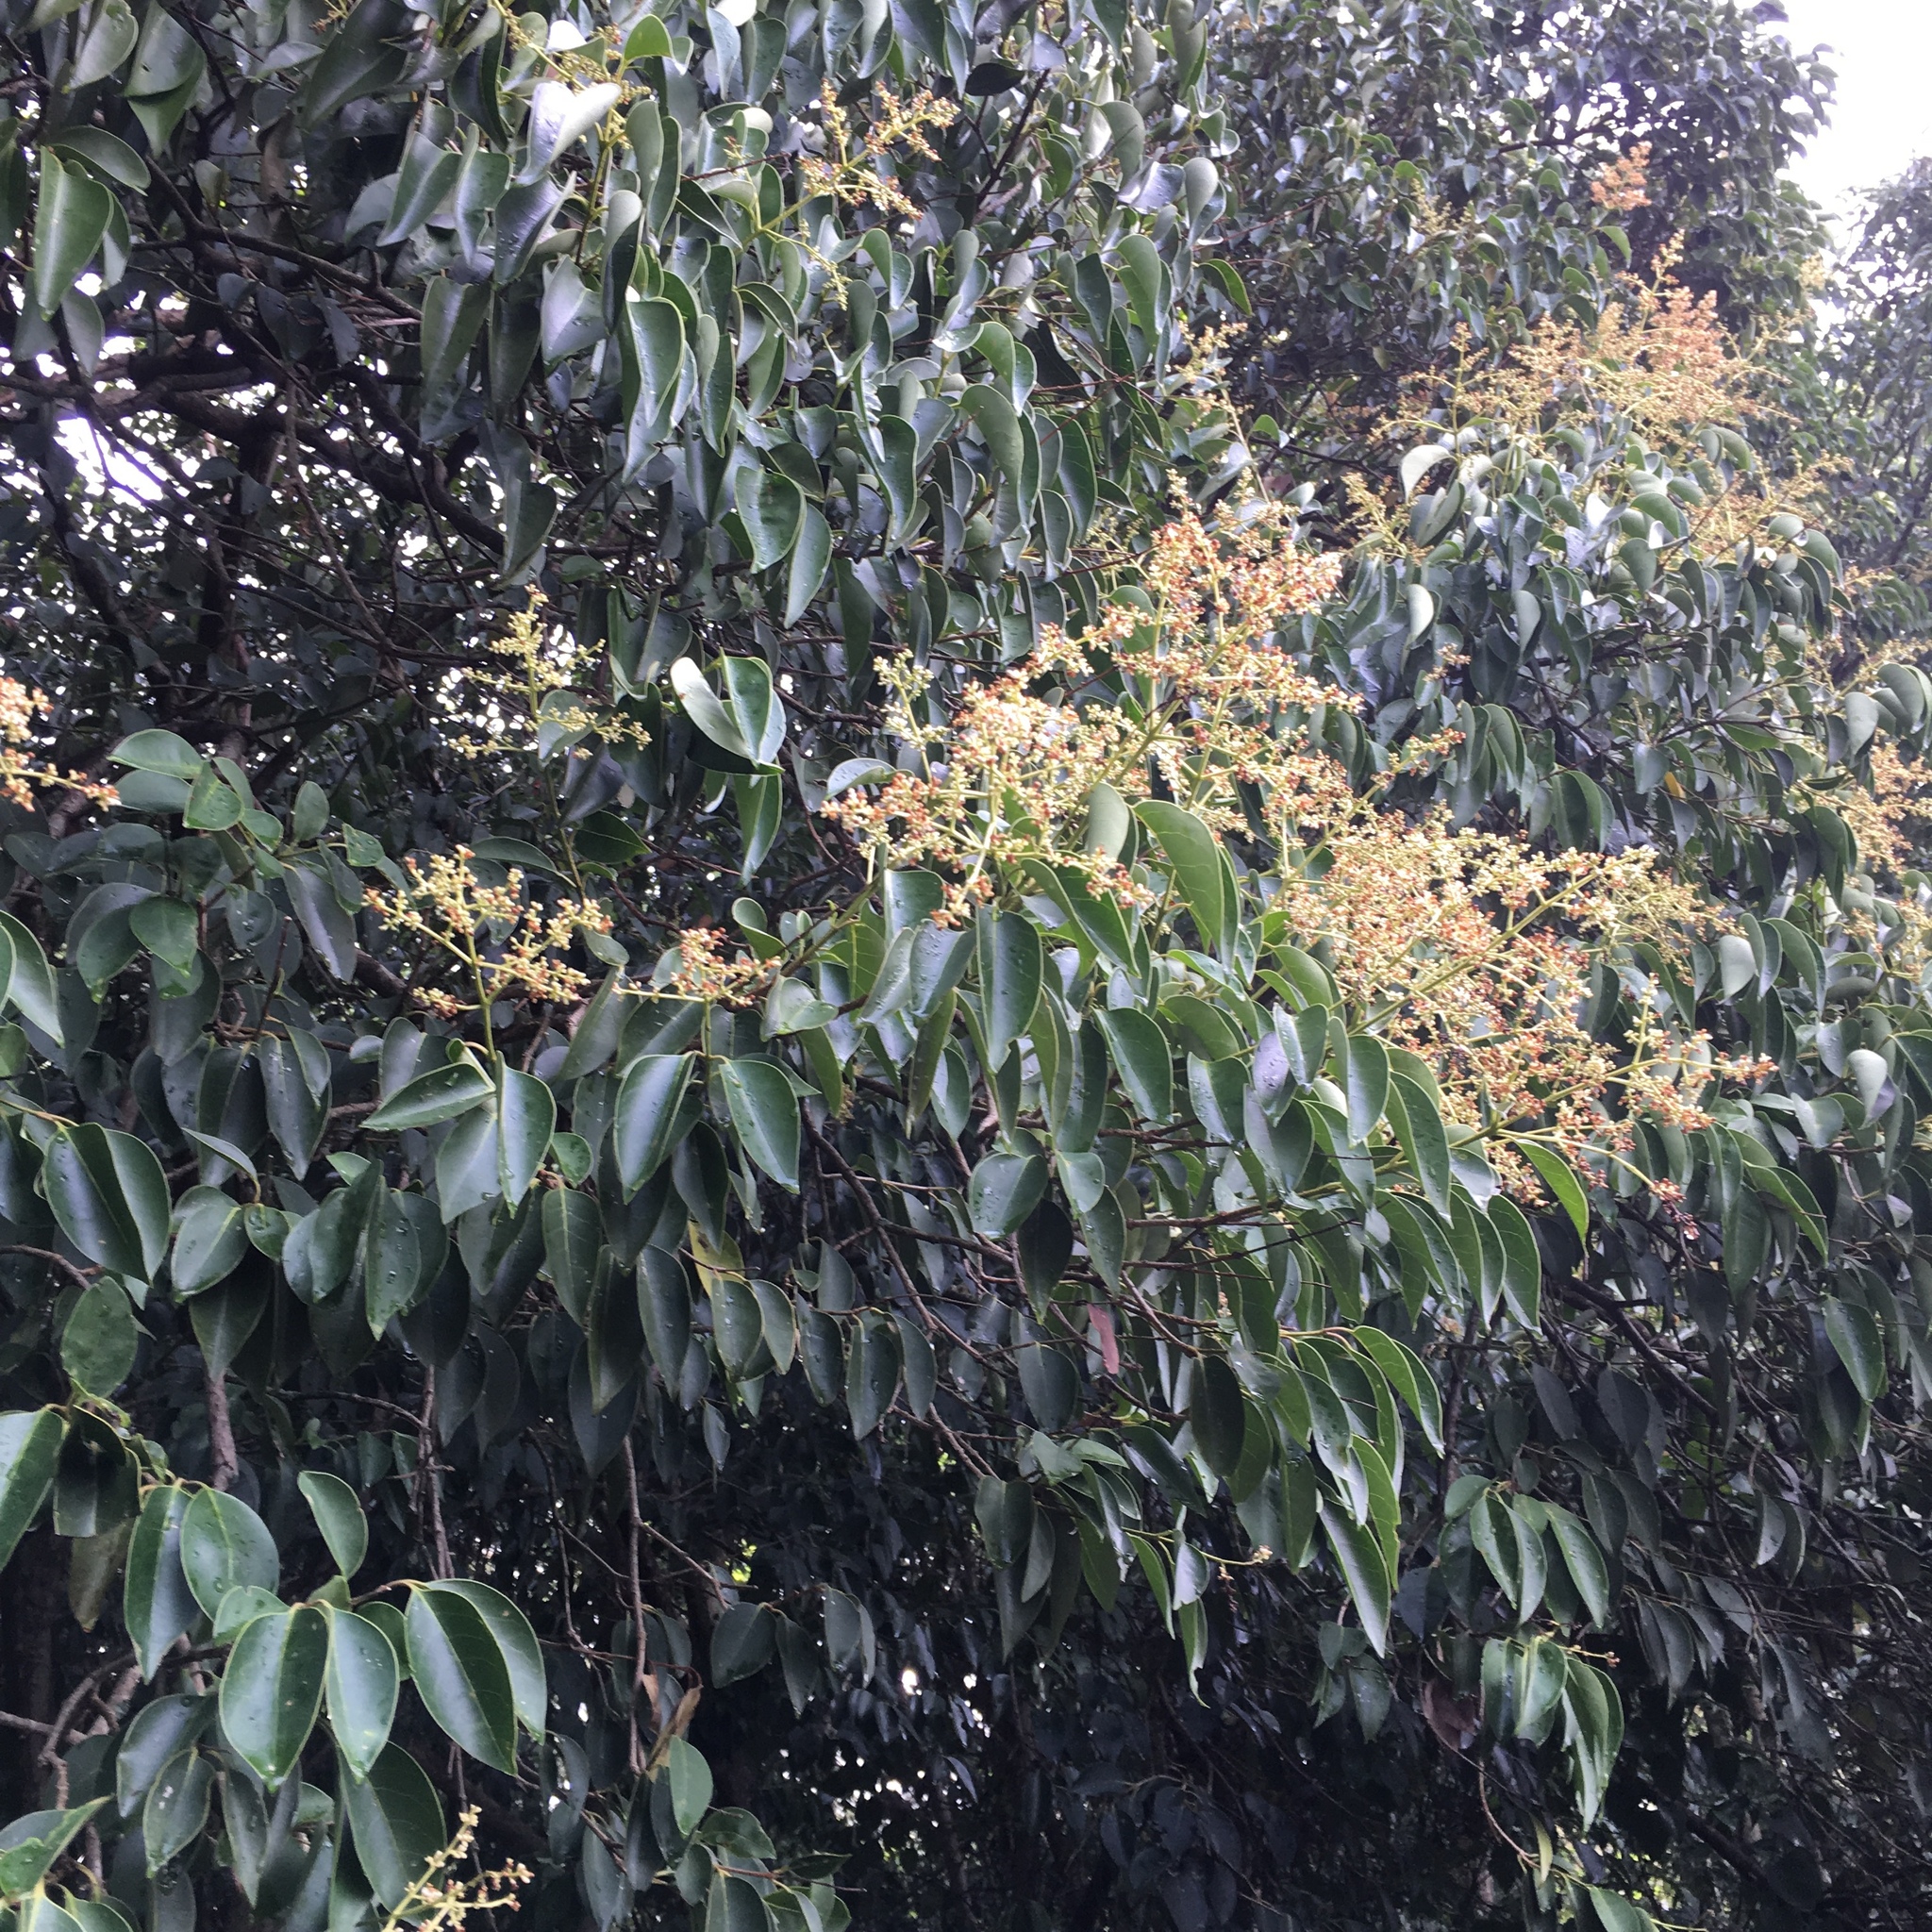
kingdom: Plantae
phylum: Tracheophyta
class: Magnoliopsida
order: Lamiales
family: Oleaceae
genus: Ligustrum
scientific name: Ligustrum lucidum
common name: Glossy privet
